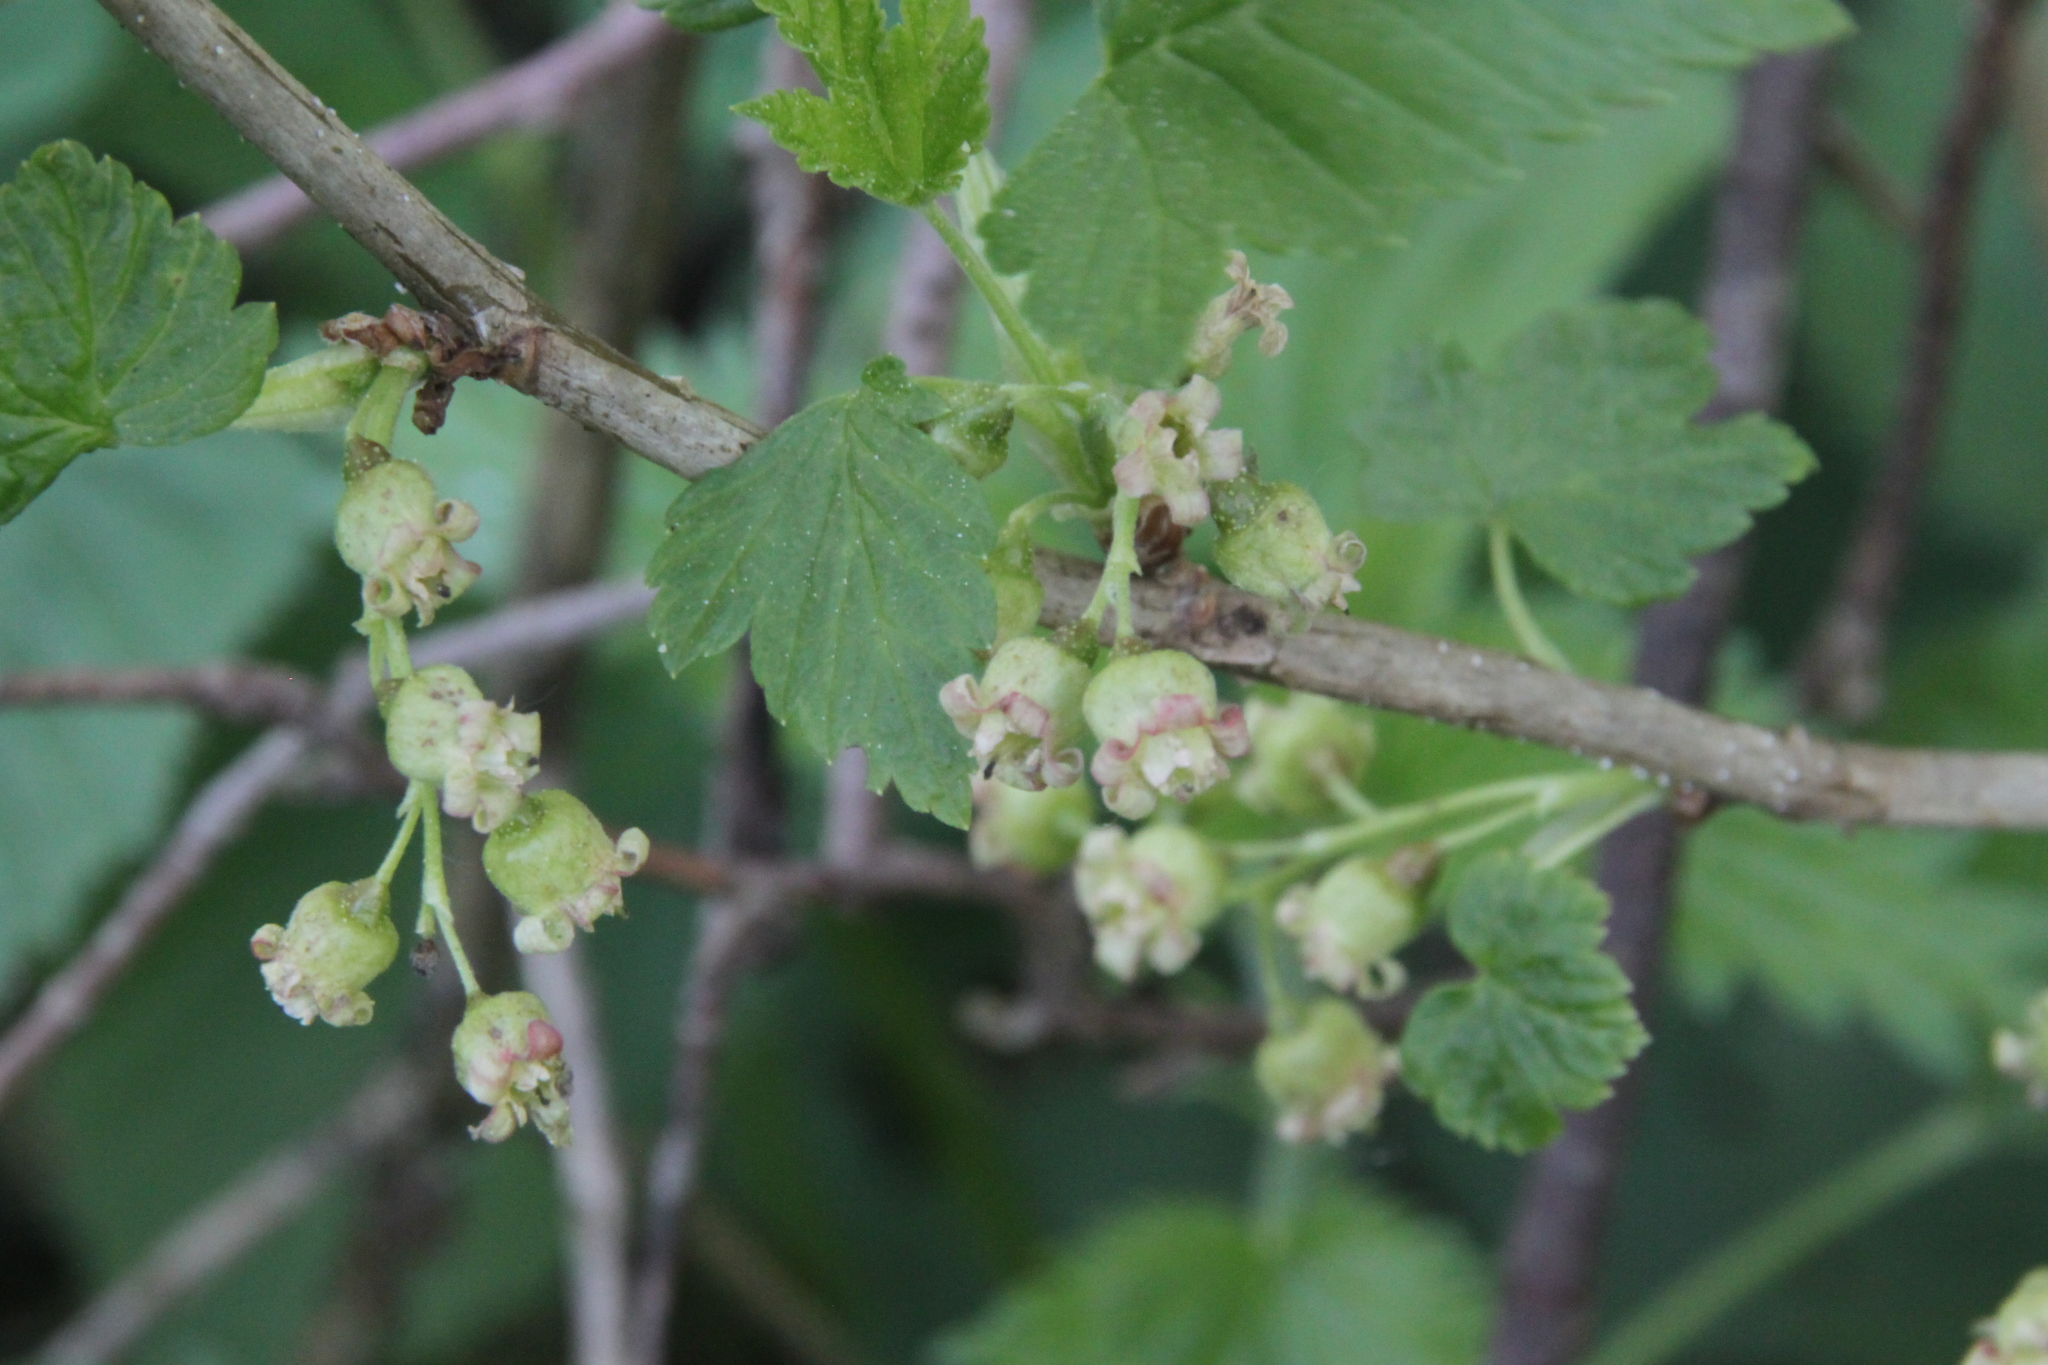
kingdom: Plantae
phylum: Tracheophyta
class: Magnoliopsida
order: Saxifragales
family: Grossulariaceae
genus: Ribes
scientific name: Ribes nigrum
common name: Black currant
